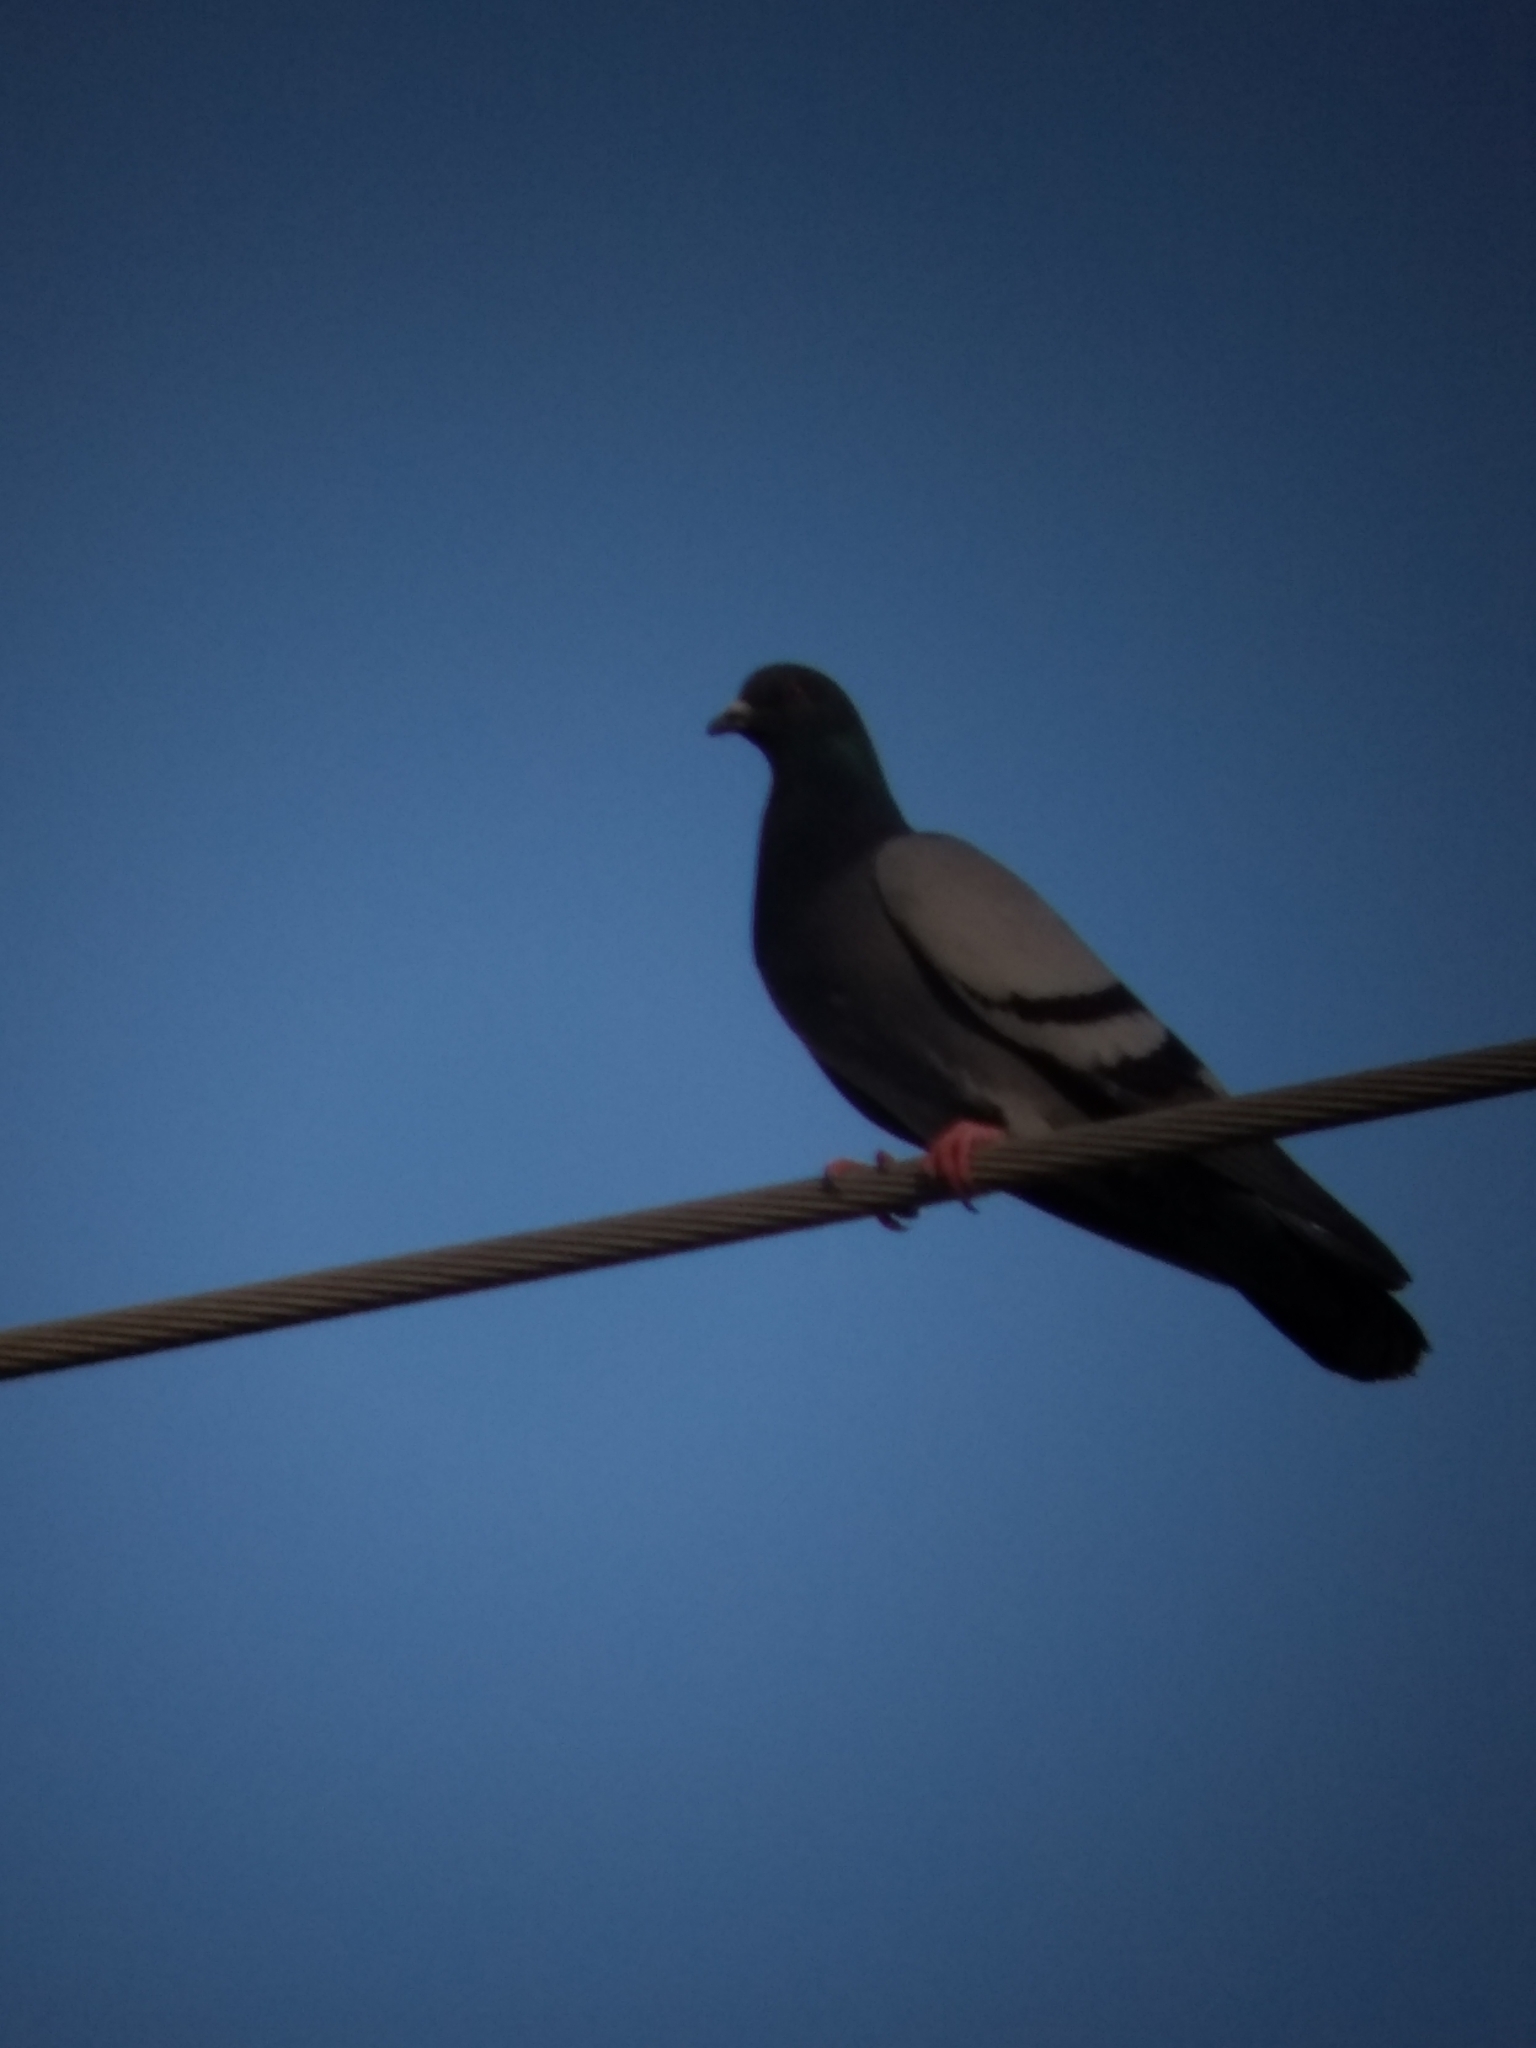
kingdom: Animalia
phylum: Chordata
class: Aves
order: Columbiformes
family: Columbidae
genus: Columba
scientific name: Columba livia
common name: Rock pigeon
